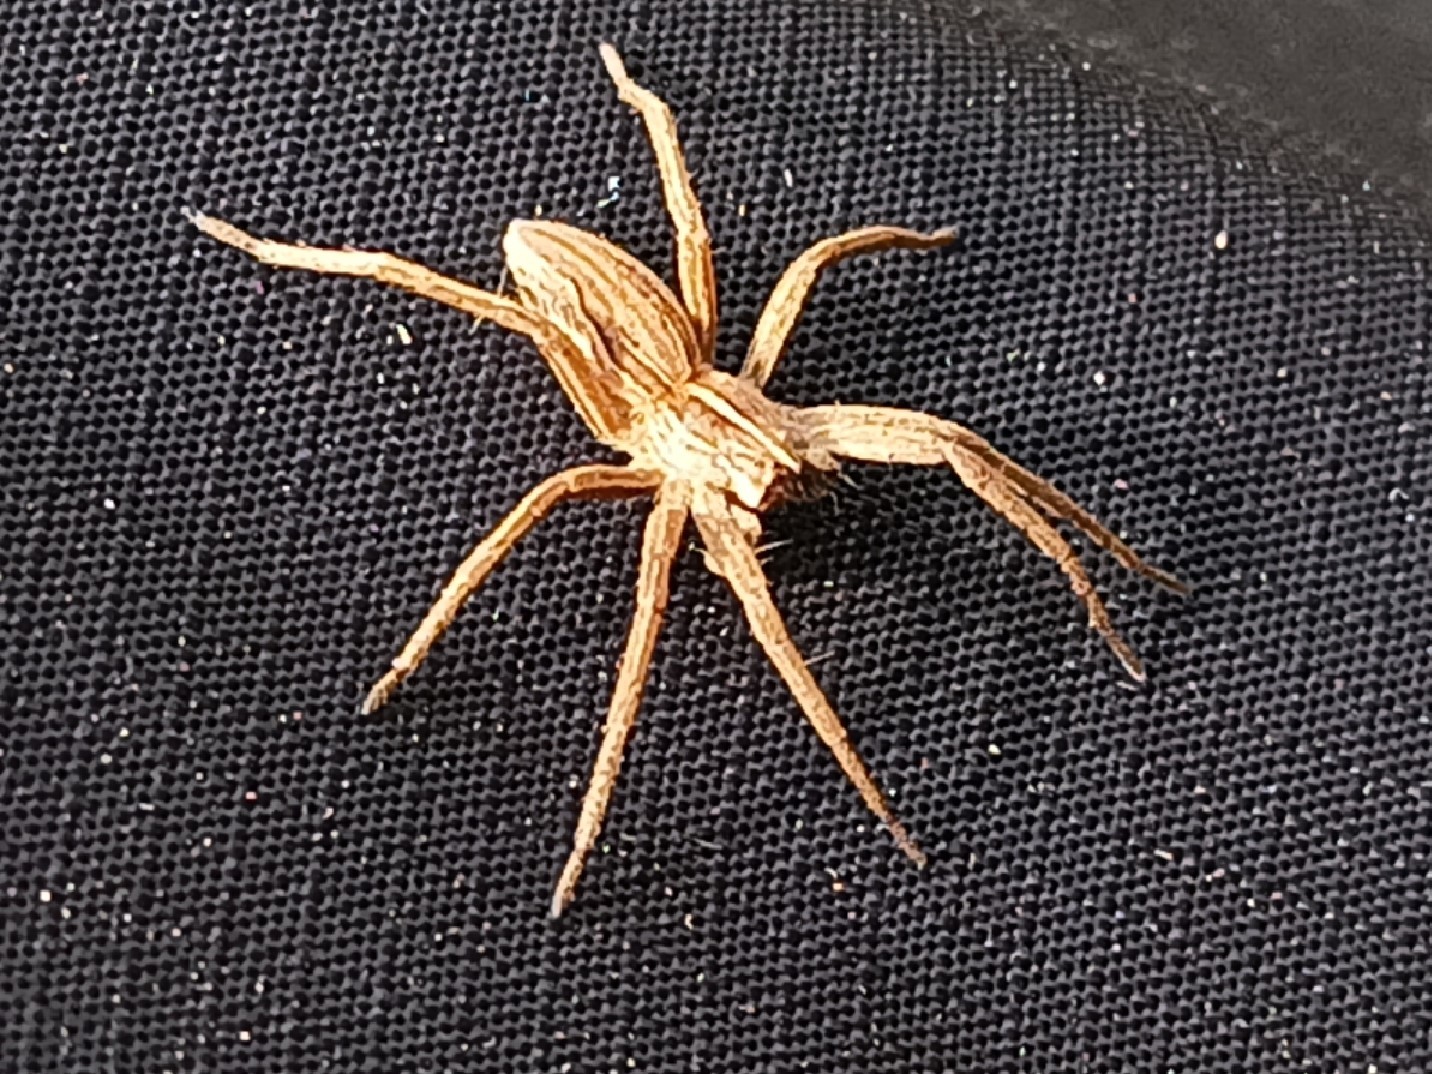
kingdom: Animalia
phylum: Arthropoda
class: Arachnida
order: Araneae
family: Pisauridae
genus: Pisaura
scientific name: Pisaura mirabilis
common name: Tent spider
